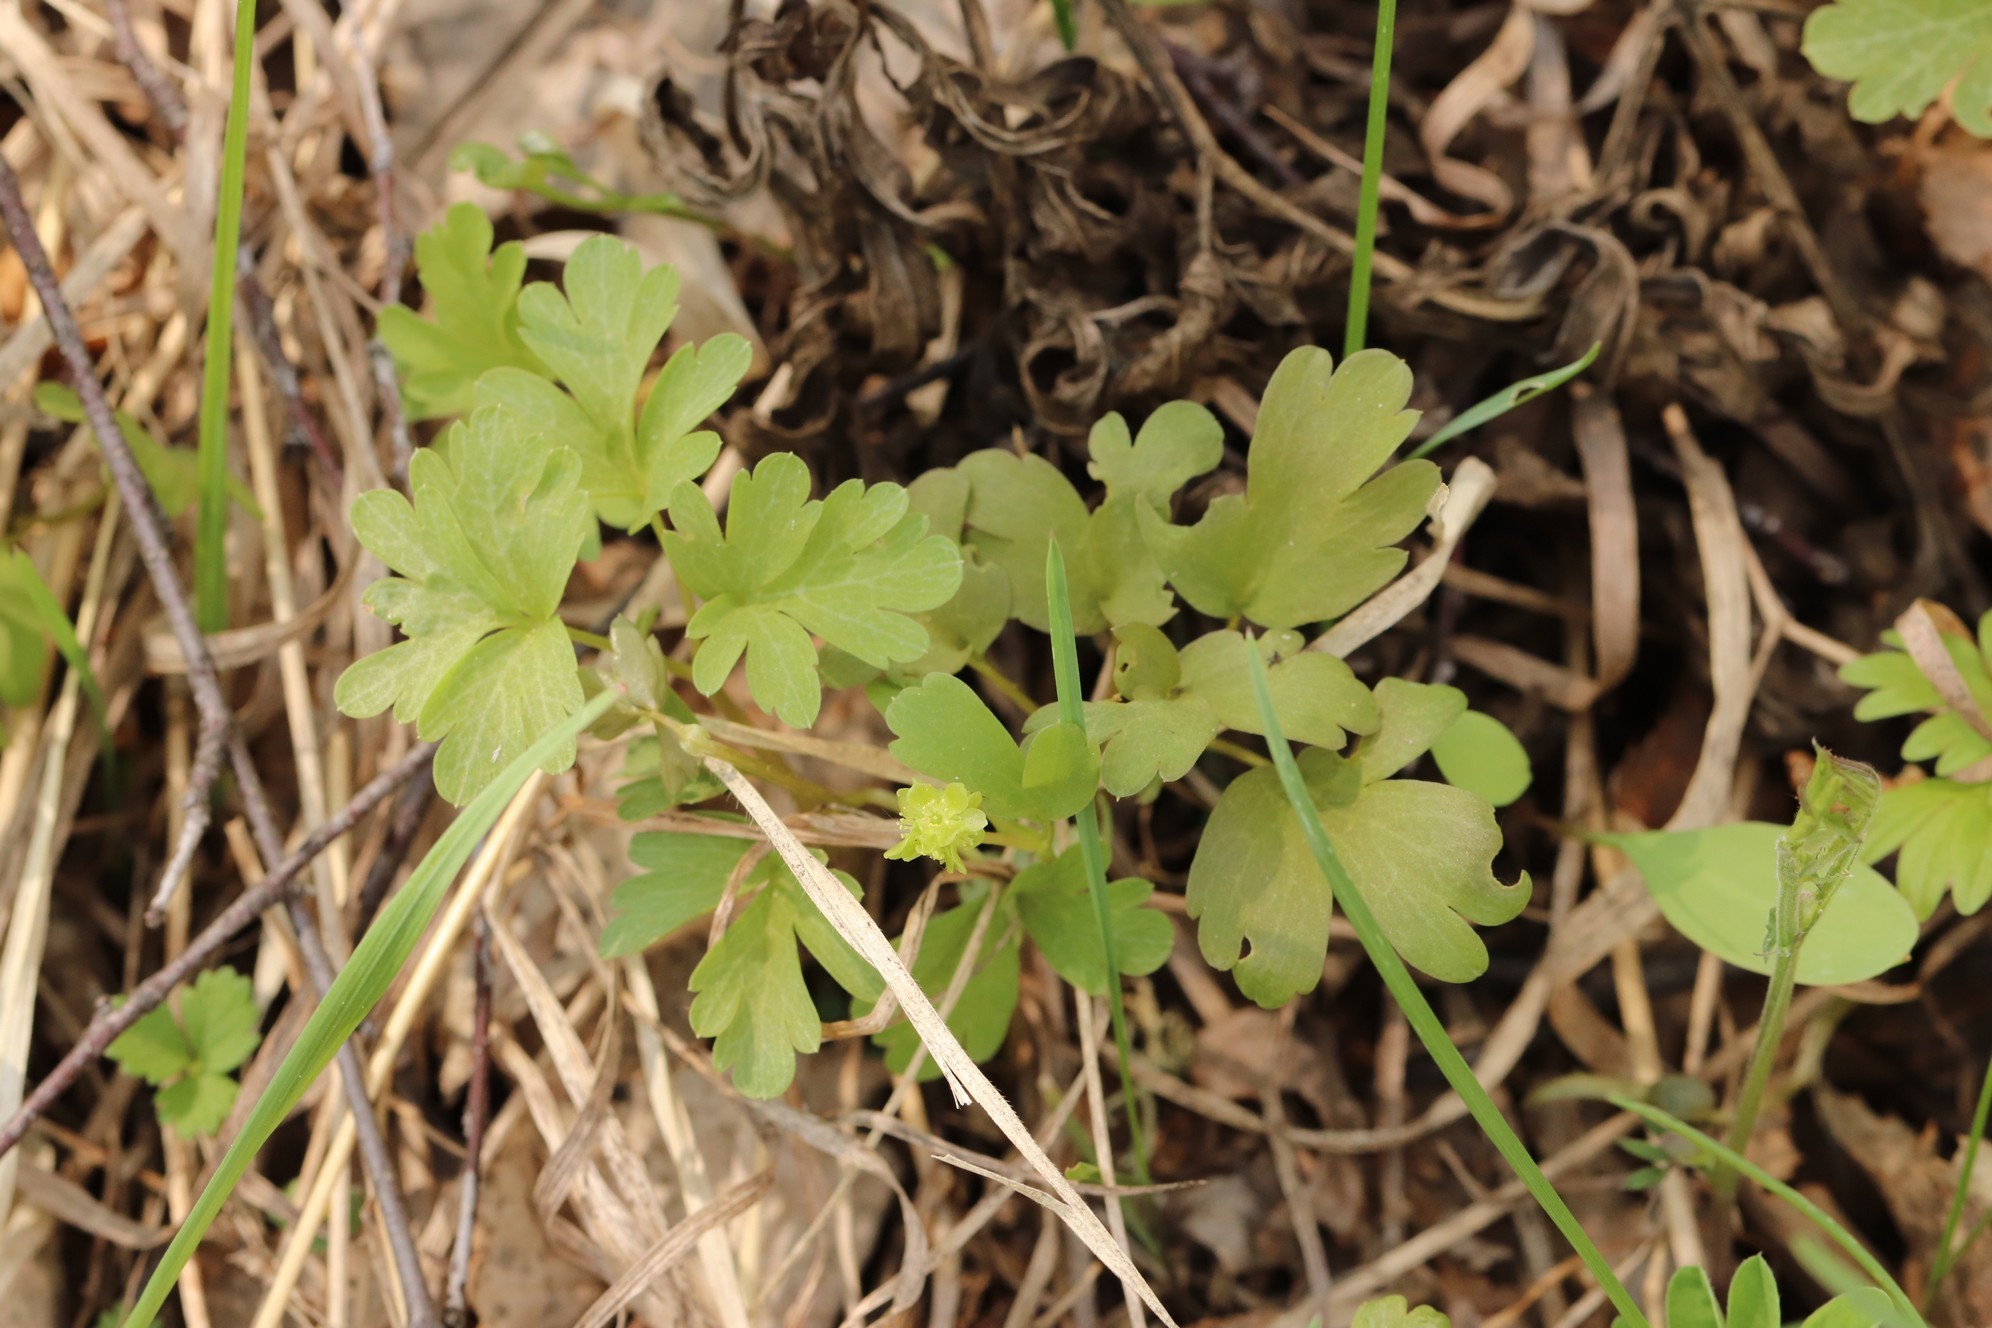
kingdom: Plantae
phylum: Tracheophyta
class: Magnoliopsida
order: Dipsacales
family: Viburnaceae
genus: Adoxa
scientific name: Adoxa moschatellina
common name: Moschatel
